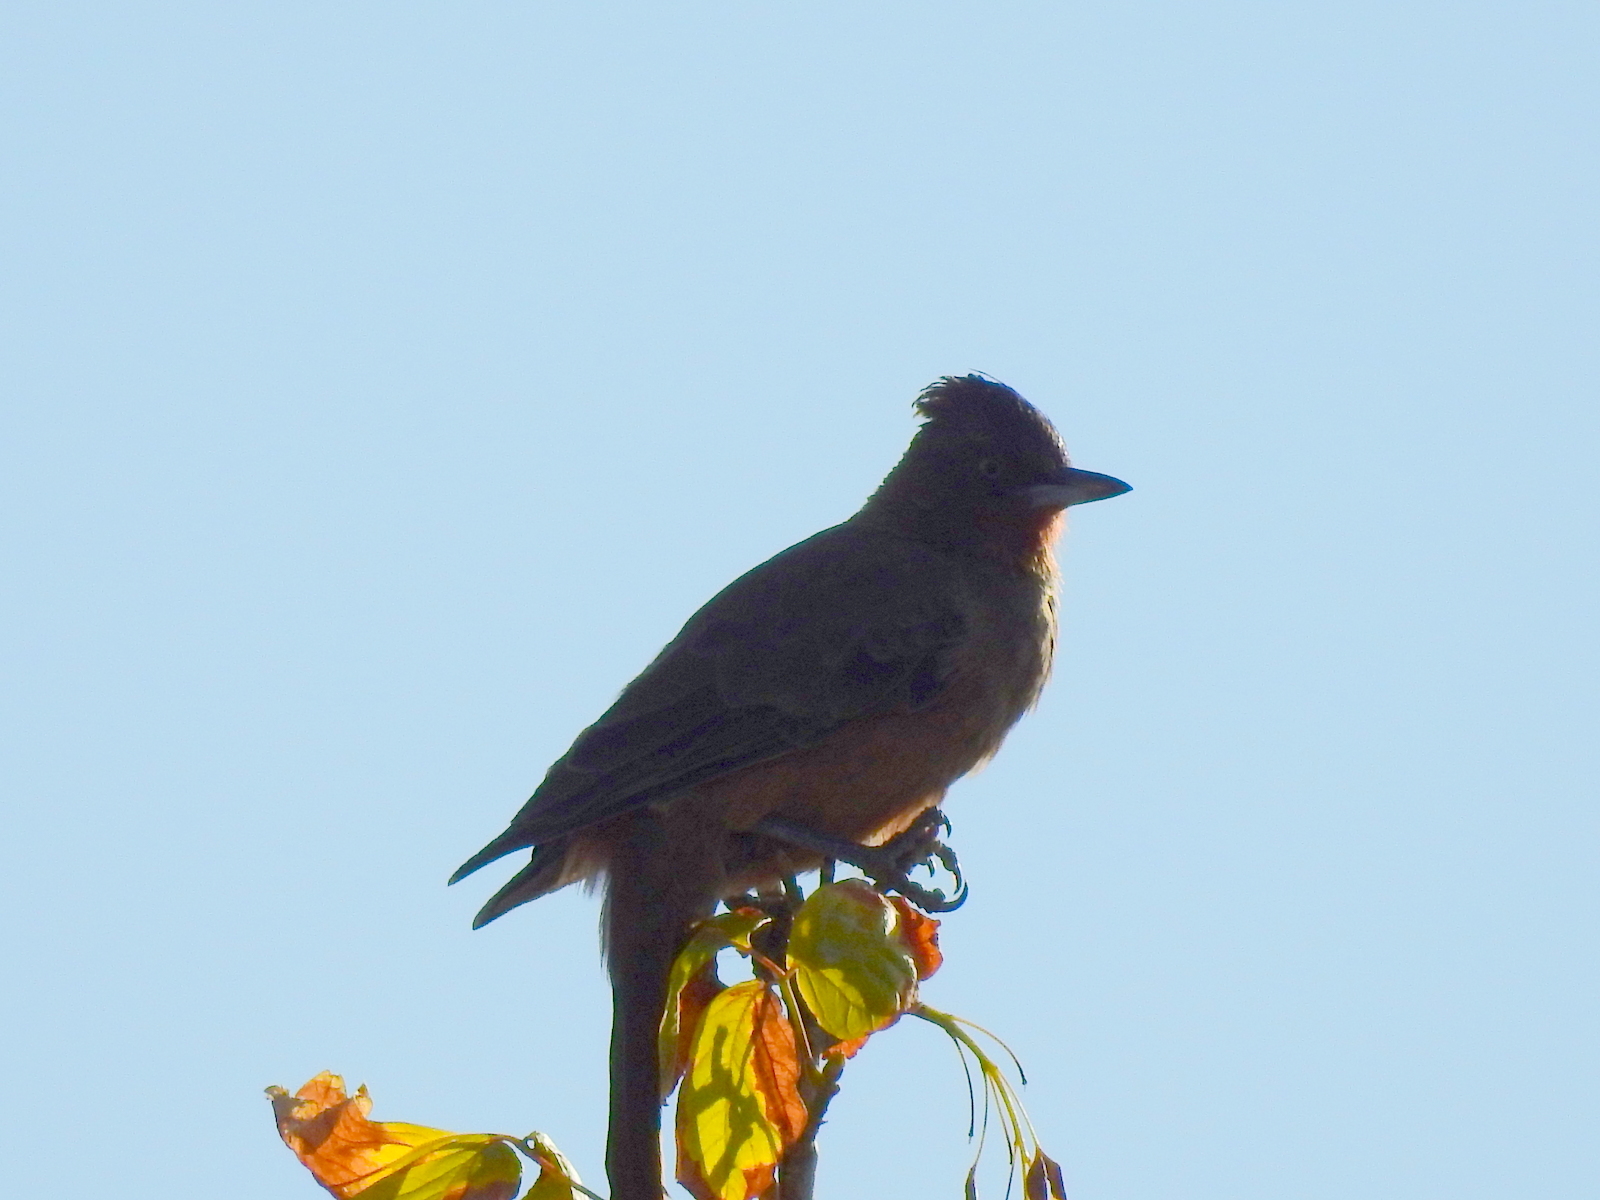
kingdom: Animalia
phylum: Chordata
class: Aves
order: Passeriformes
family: Furnariidae
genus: Pseudoseisura
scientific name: Pseudoseisura lophotes
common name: Brown cacholote
